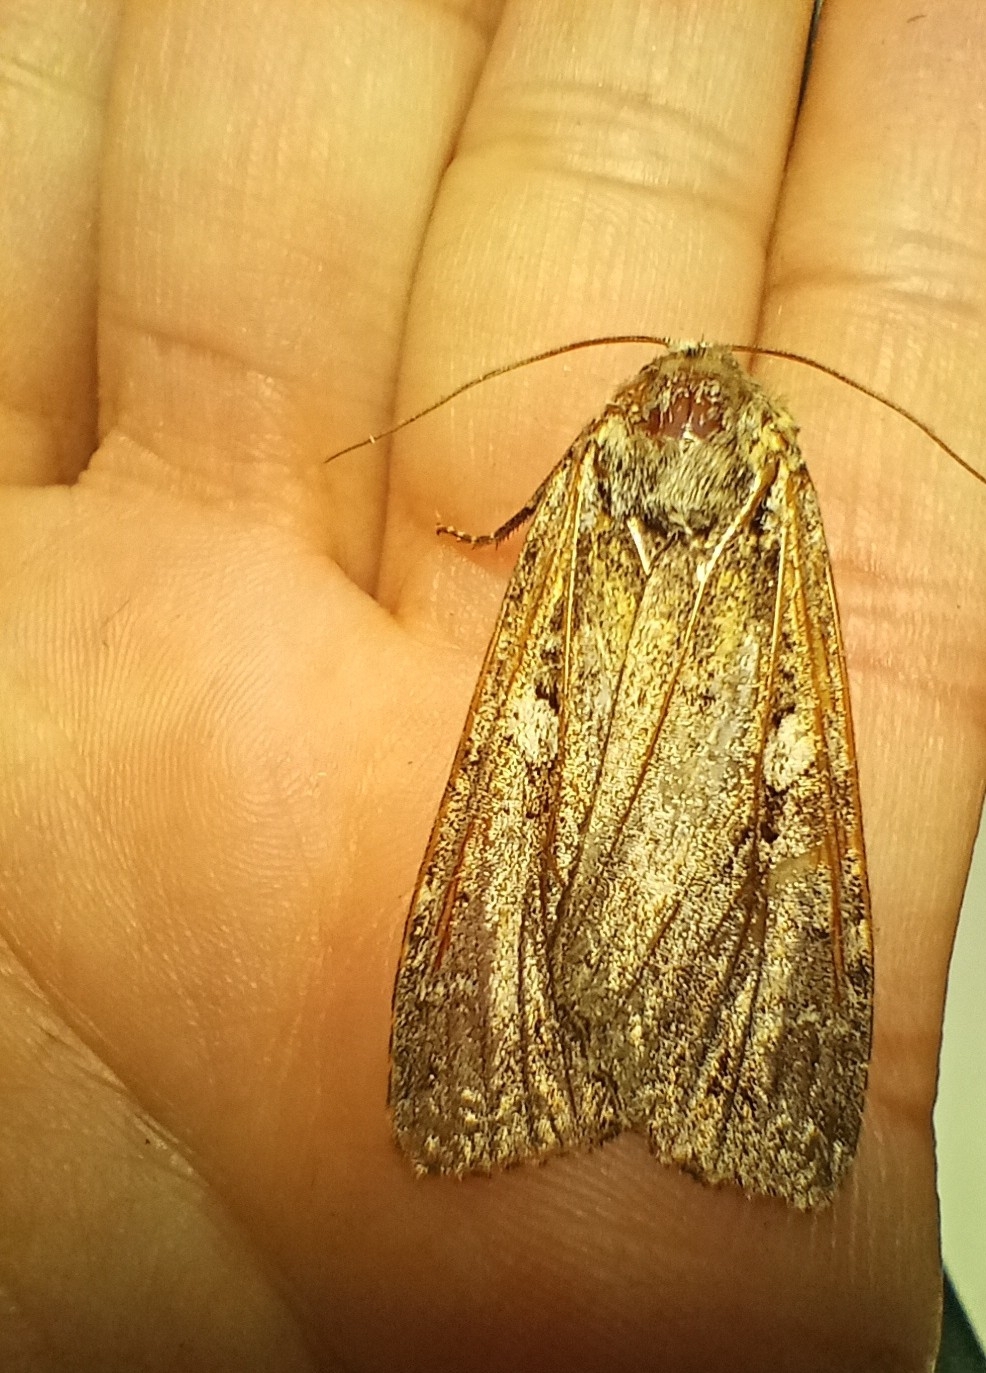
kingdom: Animalia
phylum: Arthropoda
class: Insecta
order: Lepidoptera
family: Noctuidae
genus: Eurois
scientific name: Eurois occulta
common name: Great brocade
